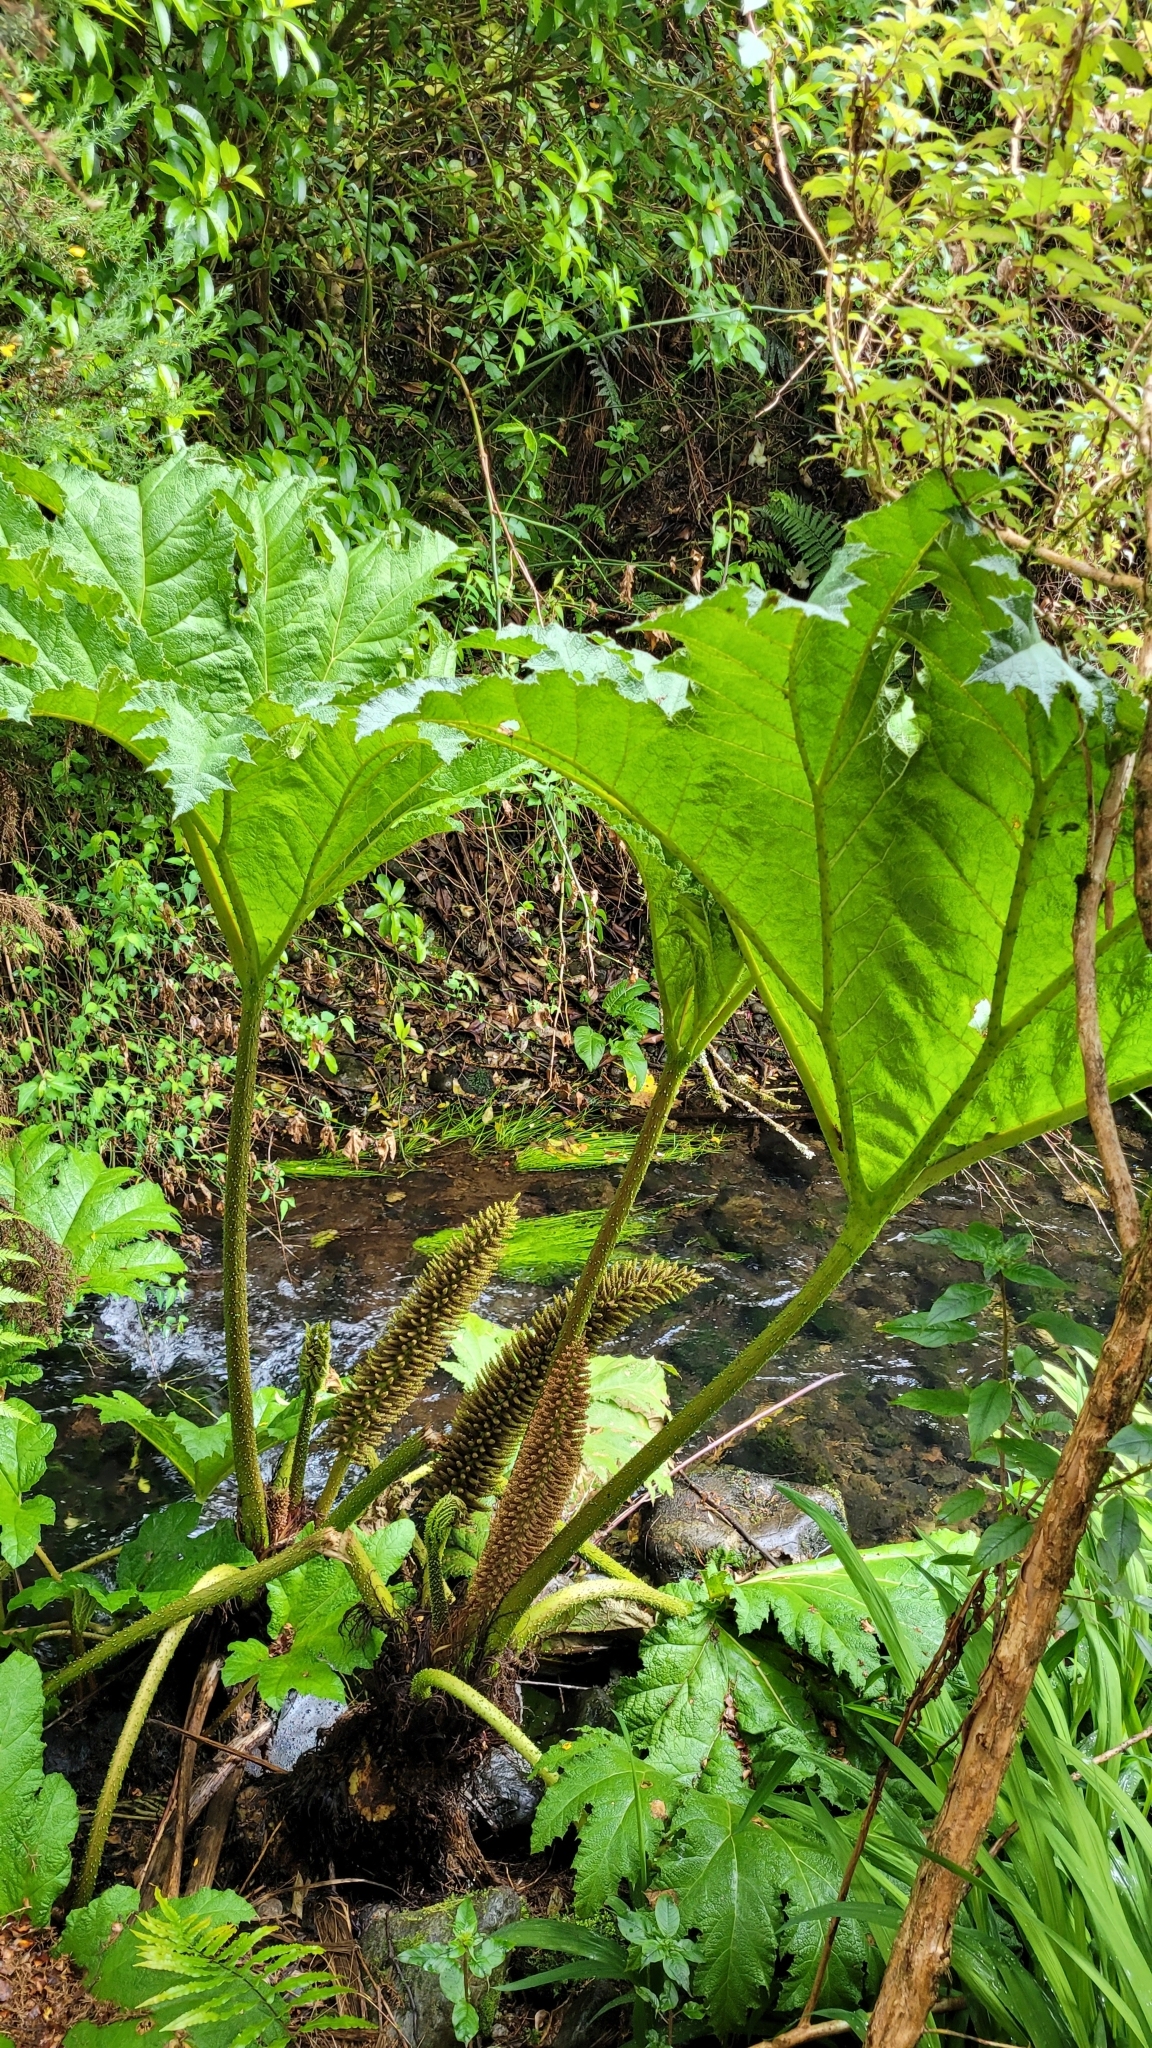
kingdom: Plantae
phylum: Tracheophyta
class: Magnoliopsida
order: Gunnerales
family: Gunneraceae
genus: Gunnera
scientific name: Gunnera tinctoria
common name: Giant-rhubarb
